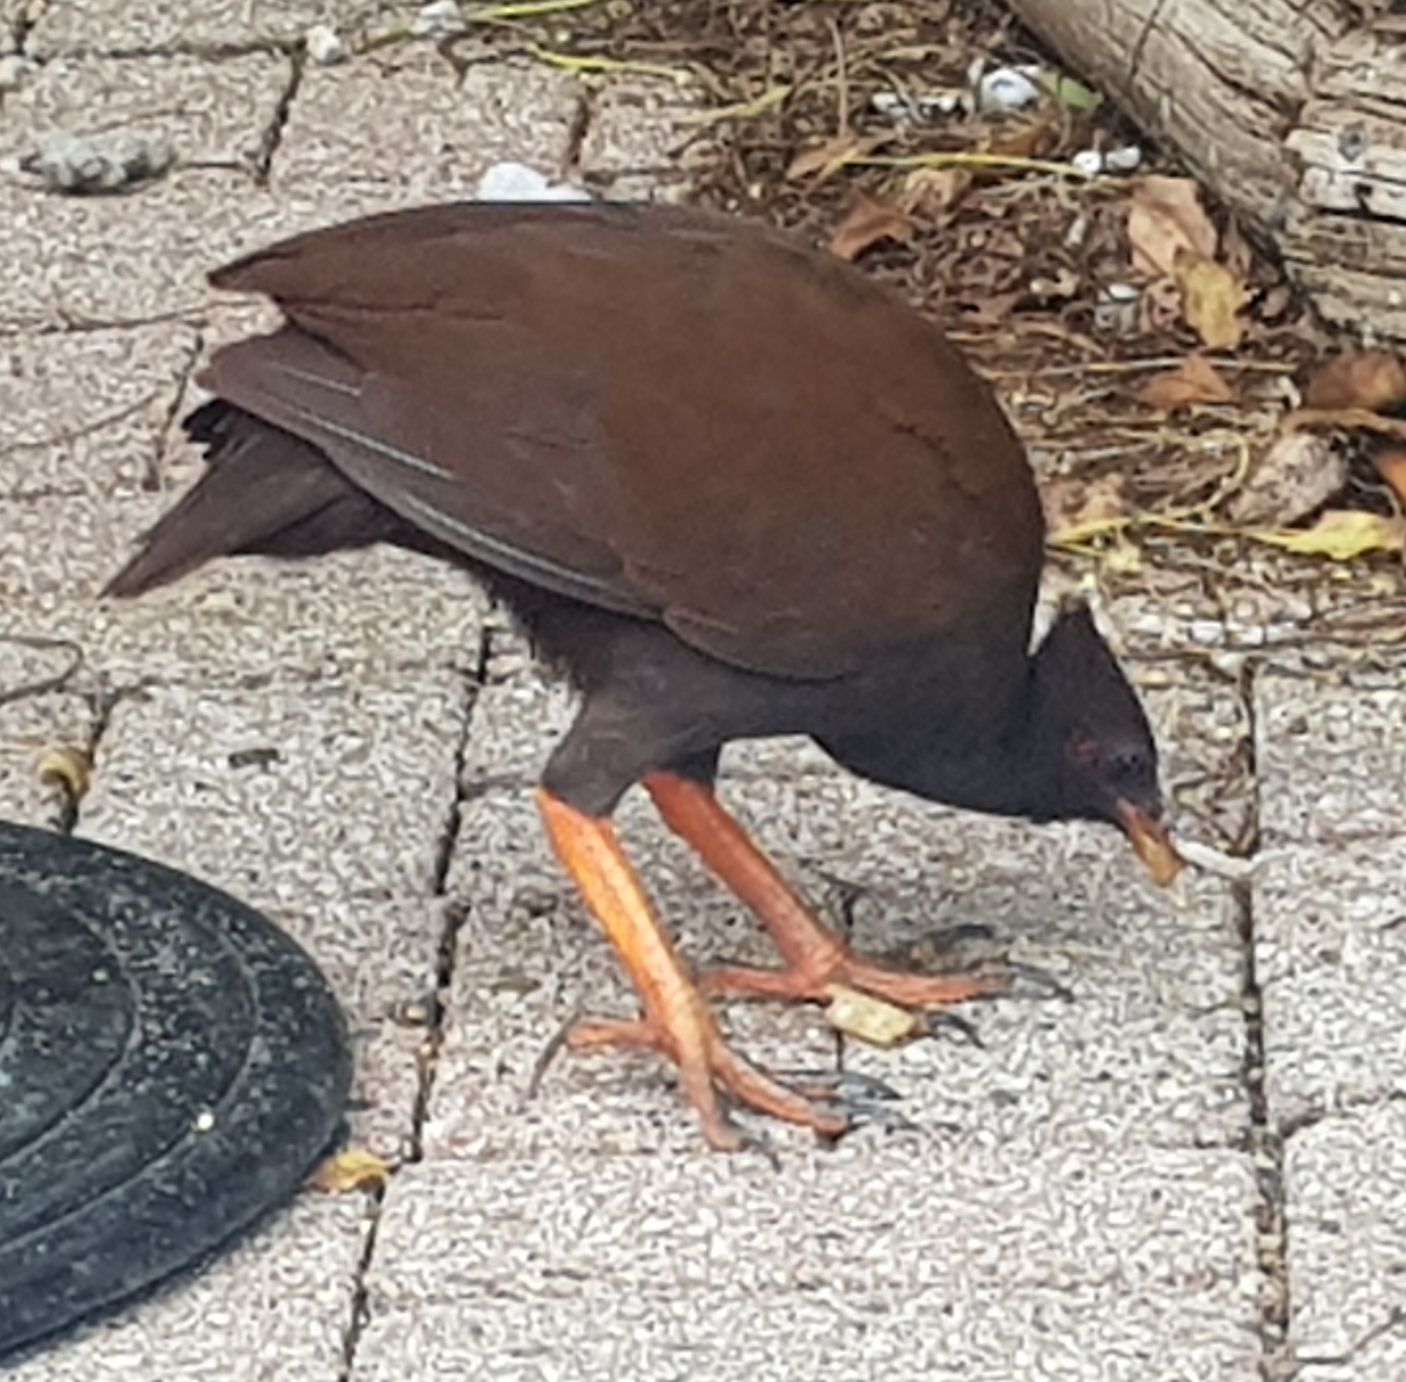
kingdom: Animalia
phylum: Chordata
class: Aves
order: Galliformes
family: Megapodiidae
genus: Megapodius
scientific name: Megapodius reinwardt
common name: Orange-footed scrubfowl
